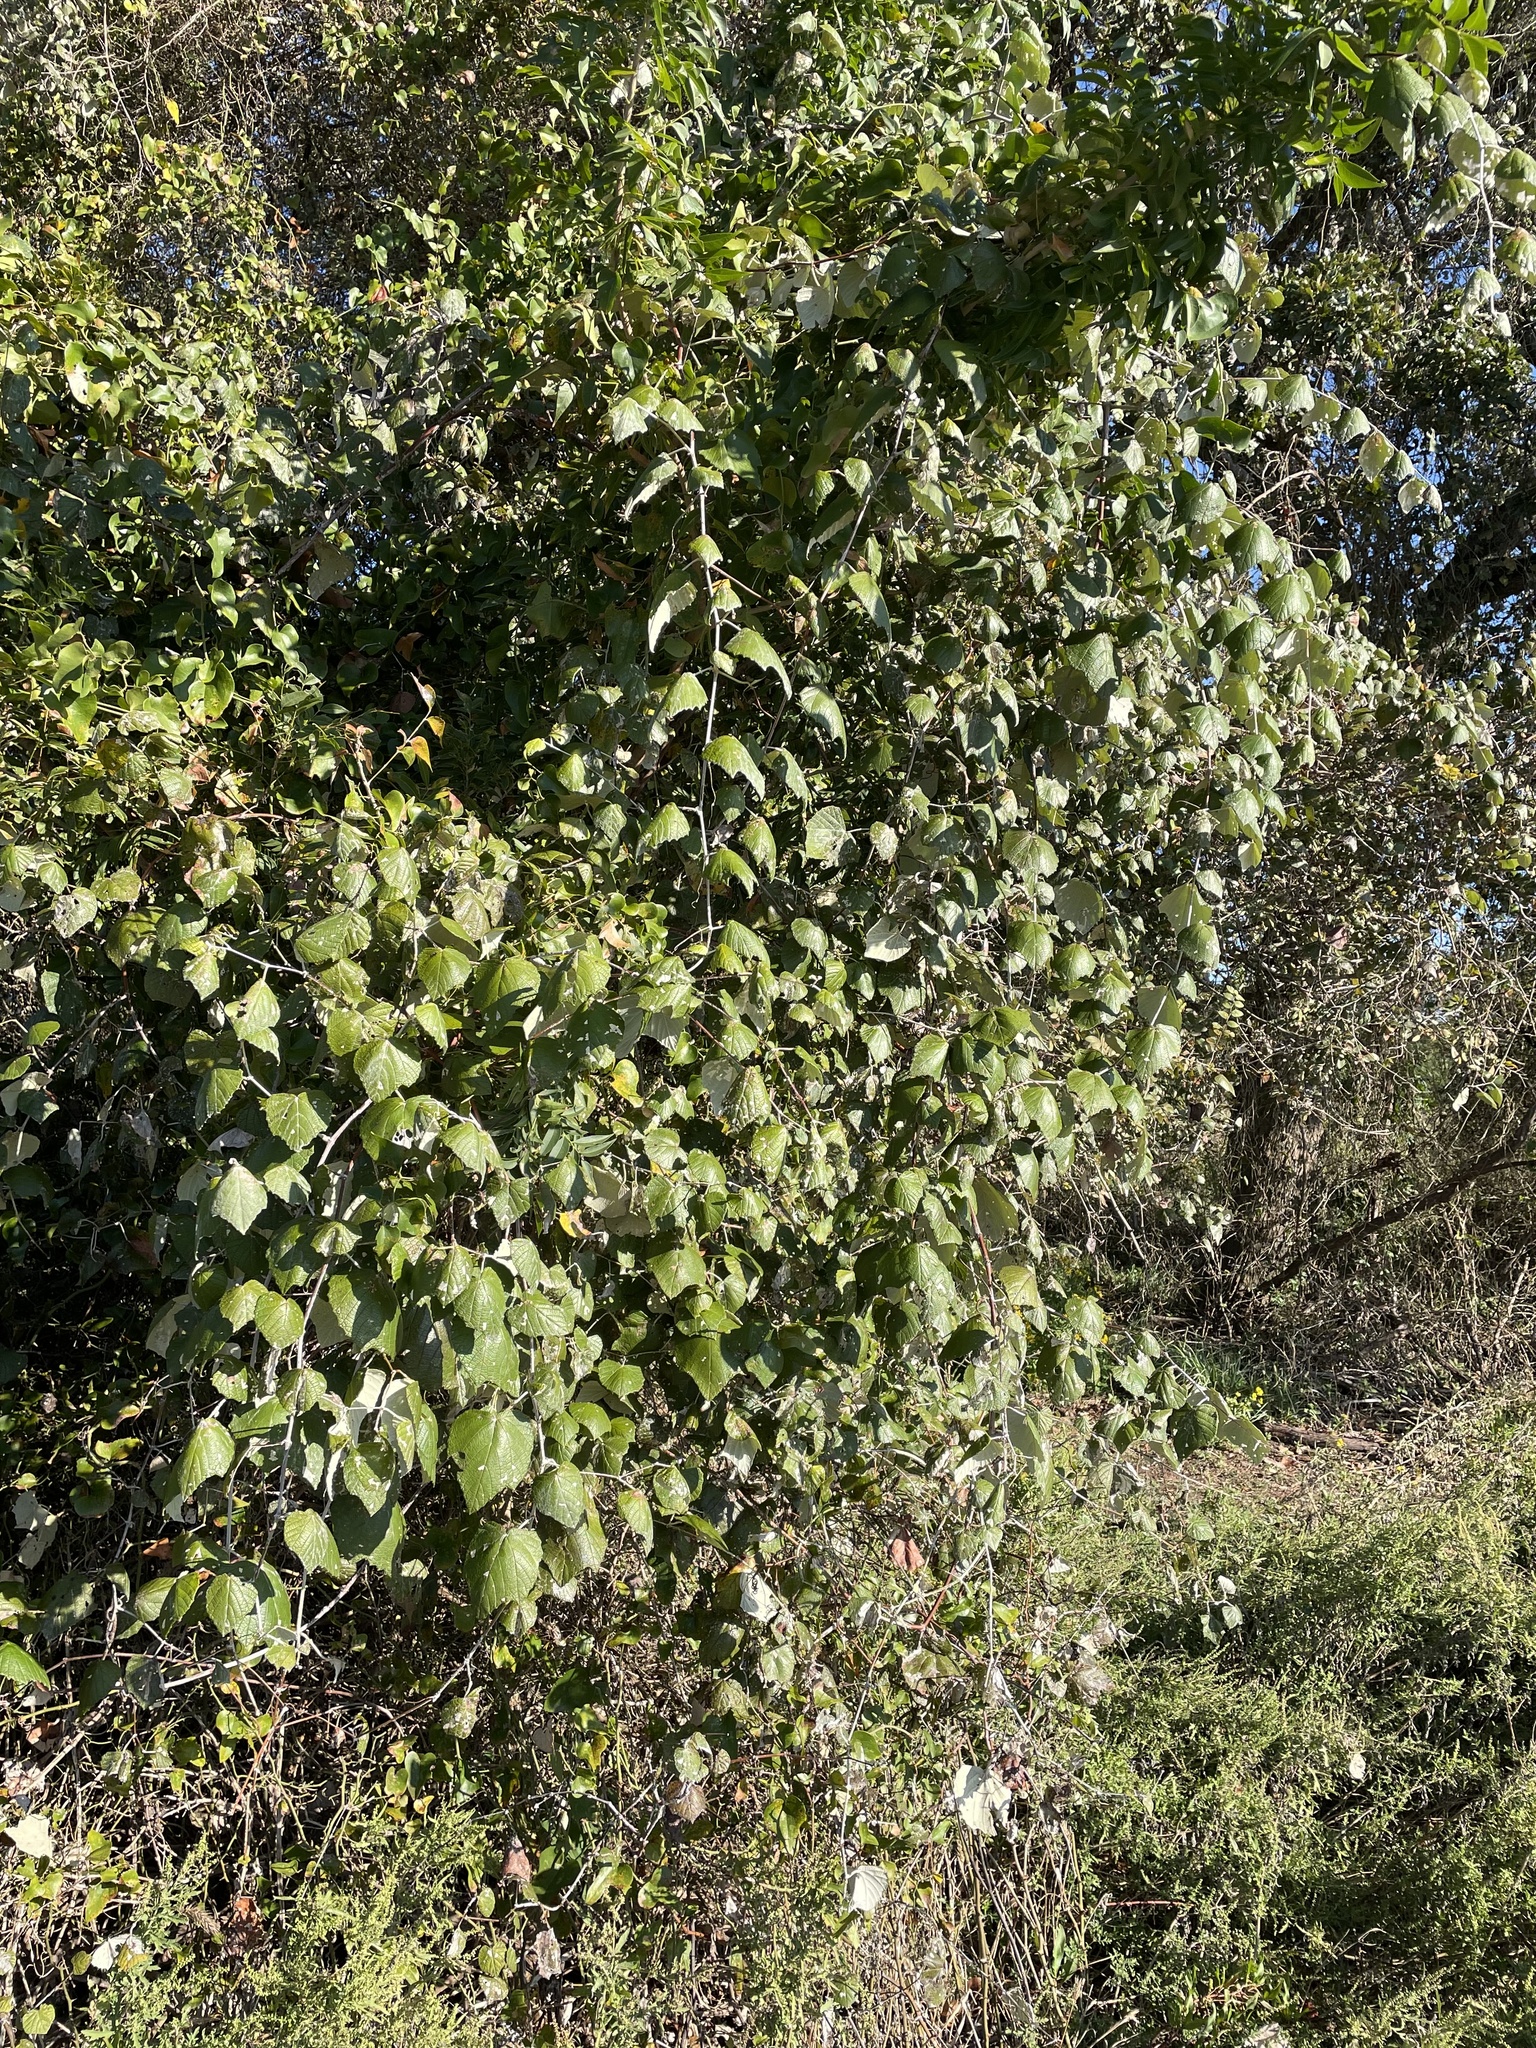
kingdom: Plantae
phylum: Tracheophyta
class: Magnoliopsida
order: Vitales
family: Vitaceae
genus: Vitis
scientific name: Vitis mustangensis
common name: Mustang grape
